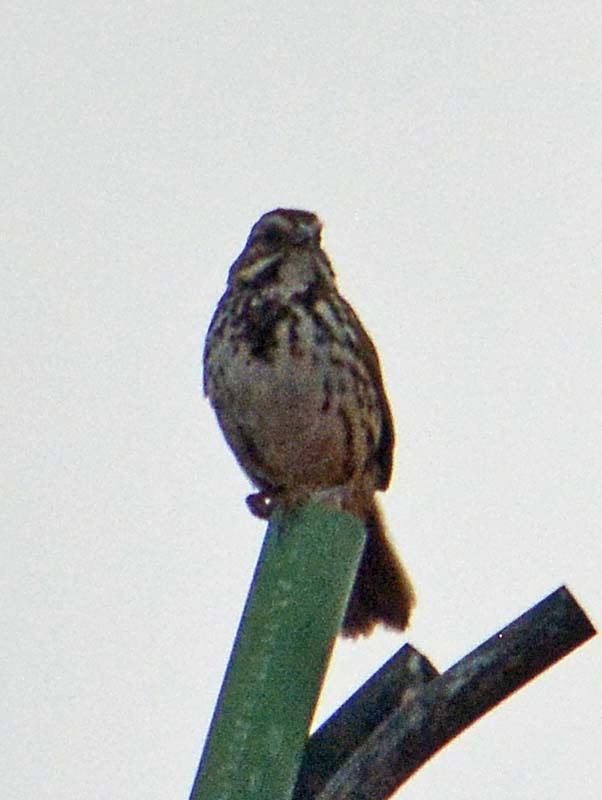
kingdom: Animalia
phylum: Chordata
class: Aves
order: Passeriformes
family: Passerellidae
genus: Melospiza
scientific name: Melospiza melodia
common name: Song sparrow
